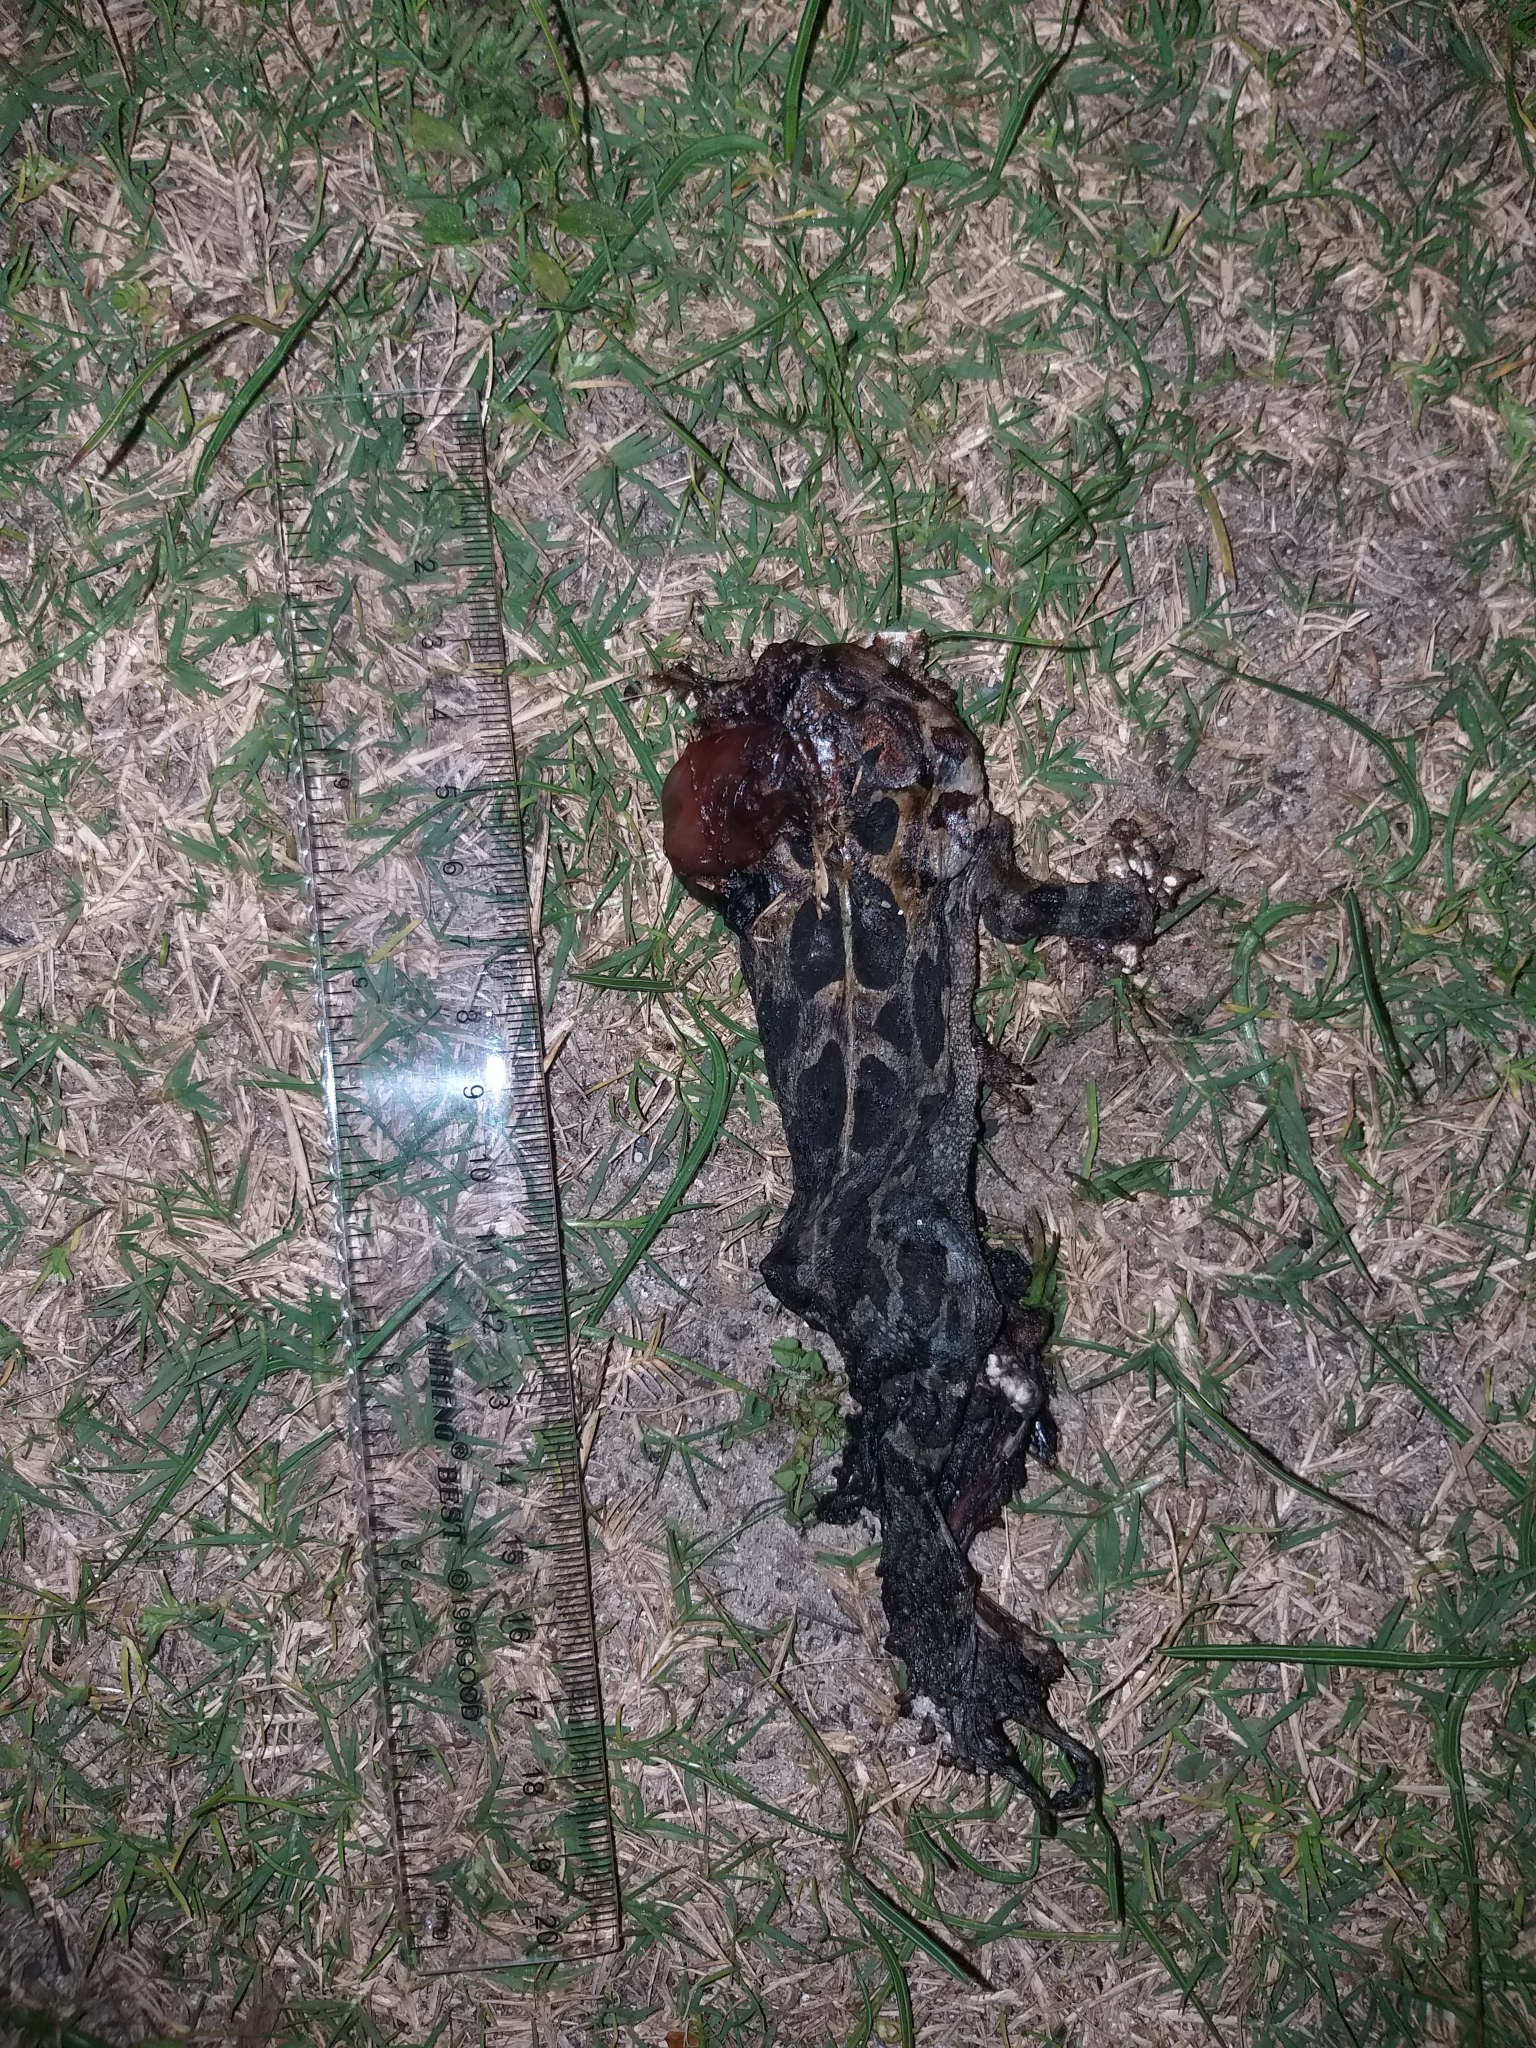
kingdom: Animalia
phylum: Chordata
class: Amphibia
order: Anura
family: Bufonidae
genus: Sclerophrys
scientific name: Sclerophrys pantherina
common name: Panther toad
